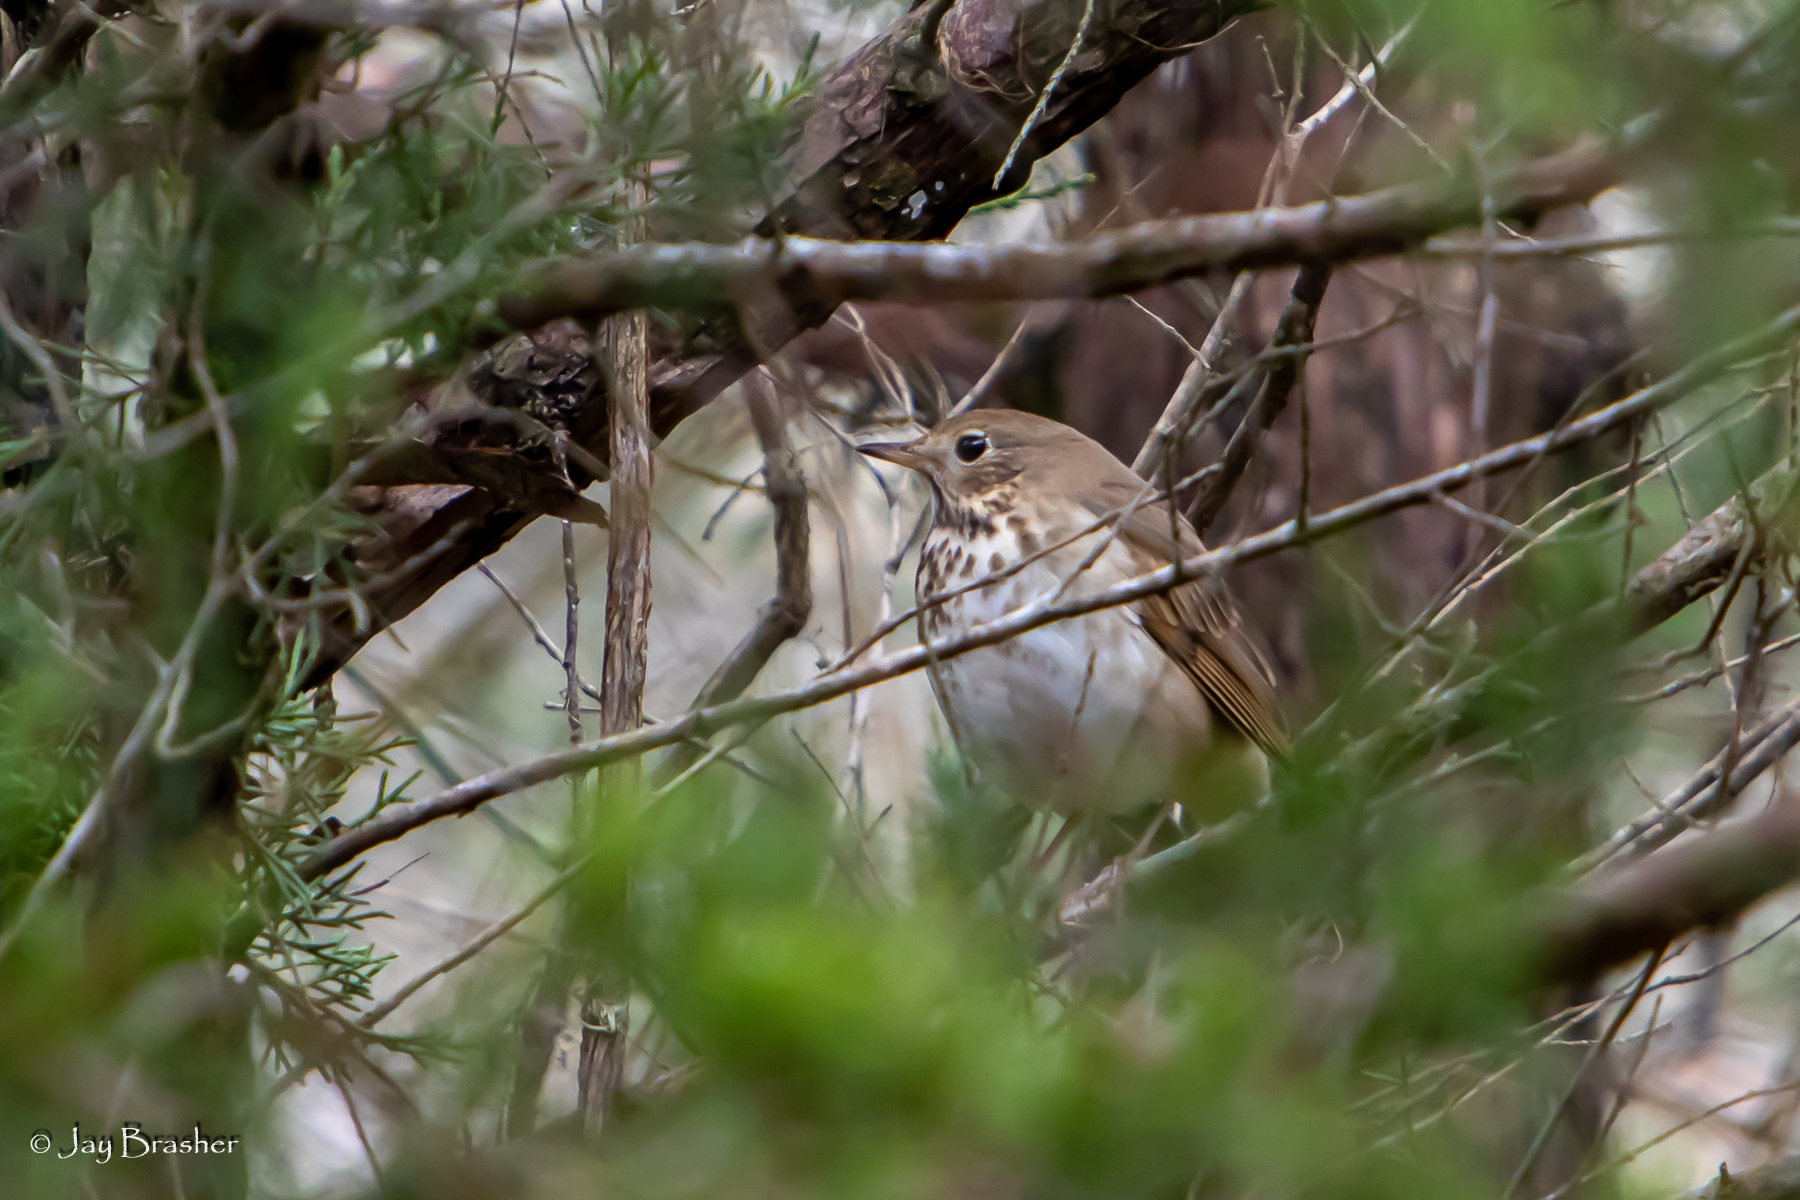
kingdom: Animalia
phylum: Chordata
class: Aves
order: Passeriformes
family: Turdidae
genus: Catharus
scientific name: Catharus guttatus
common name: Hermit thrush
